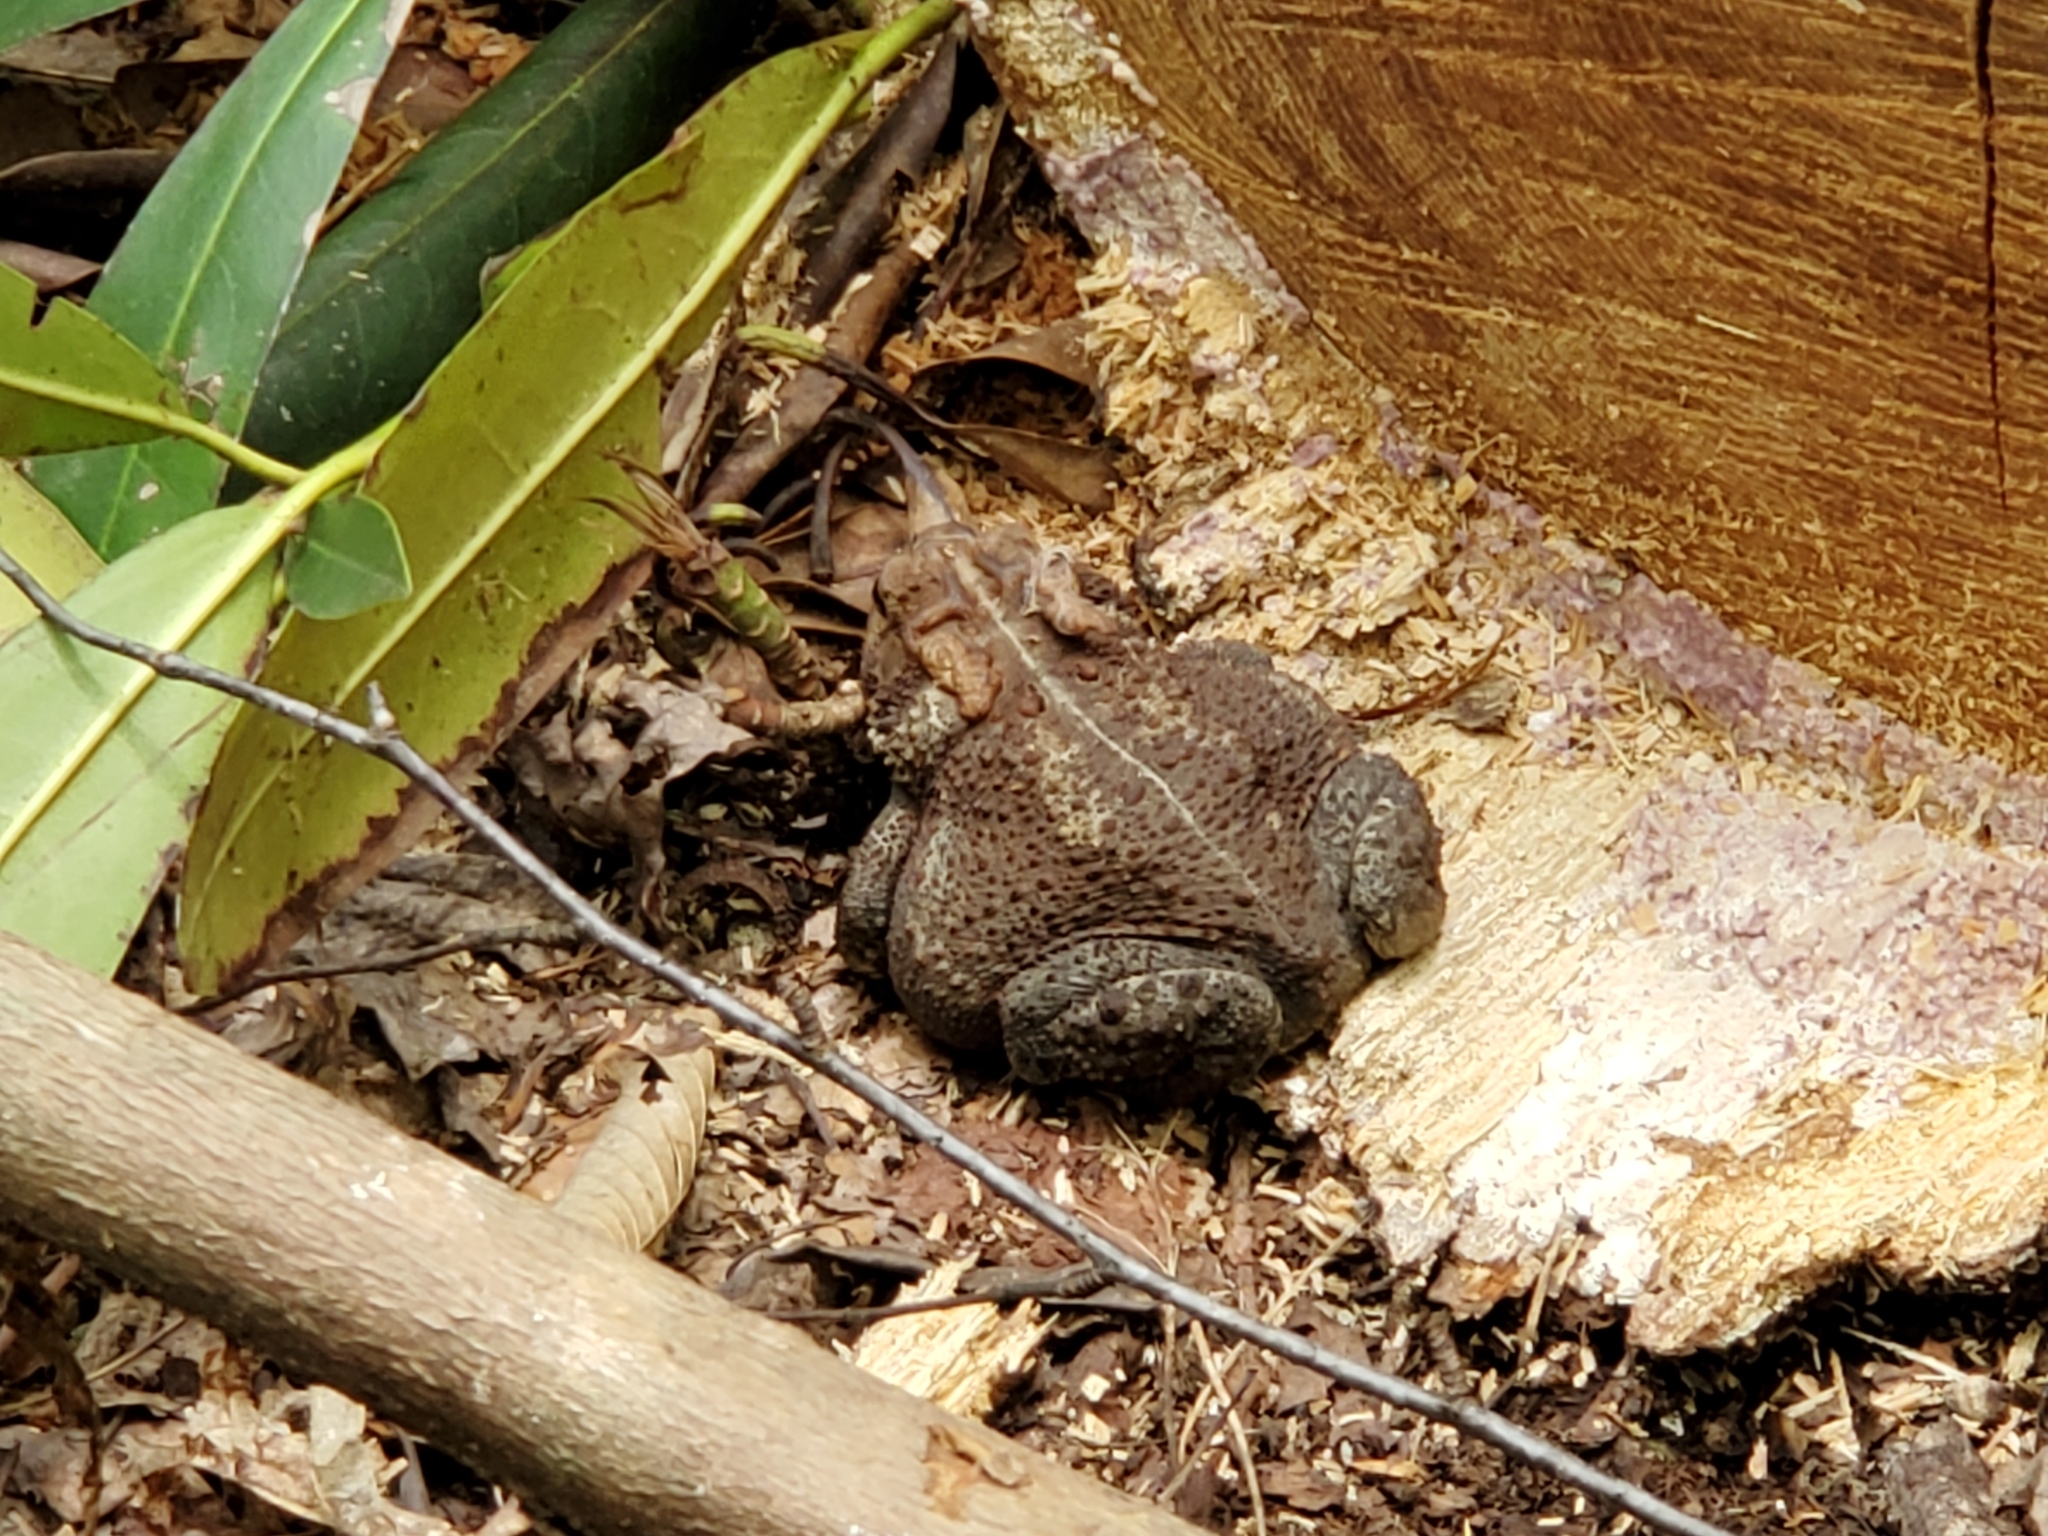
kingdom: Animalia
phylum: Chordata
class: Amphibia
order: Anura
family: Bufonidae
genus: Anaxyrus
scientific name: Anaxyrus americanus
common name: American toad
